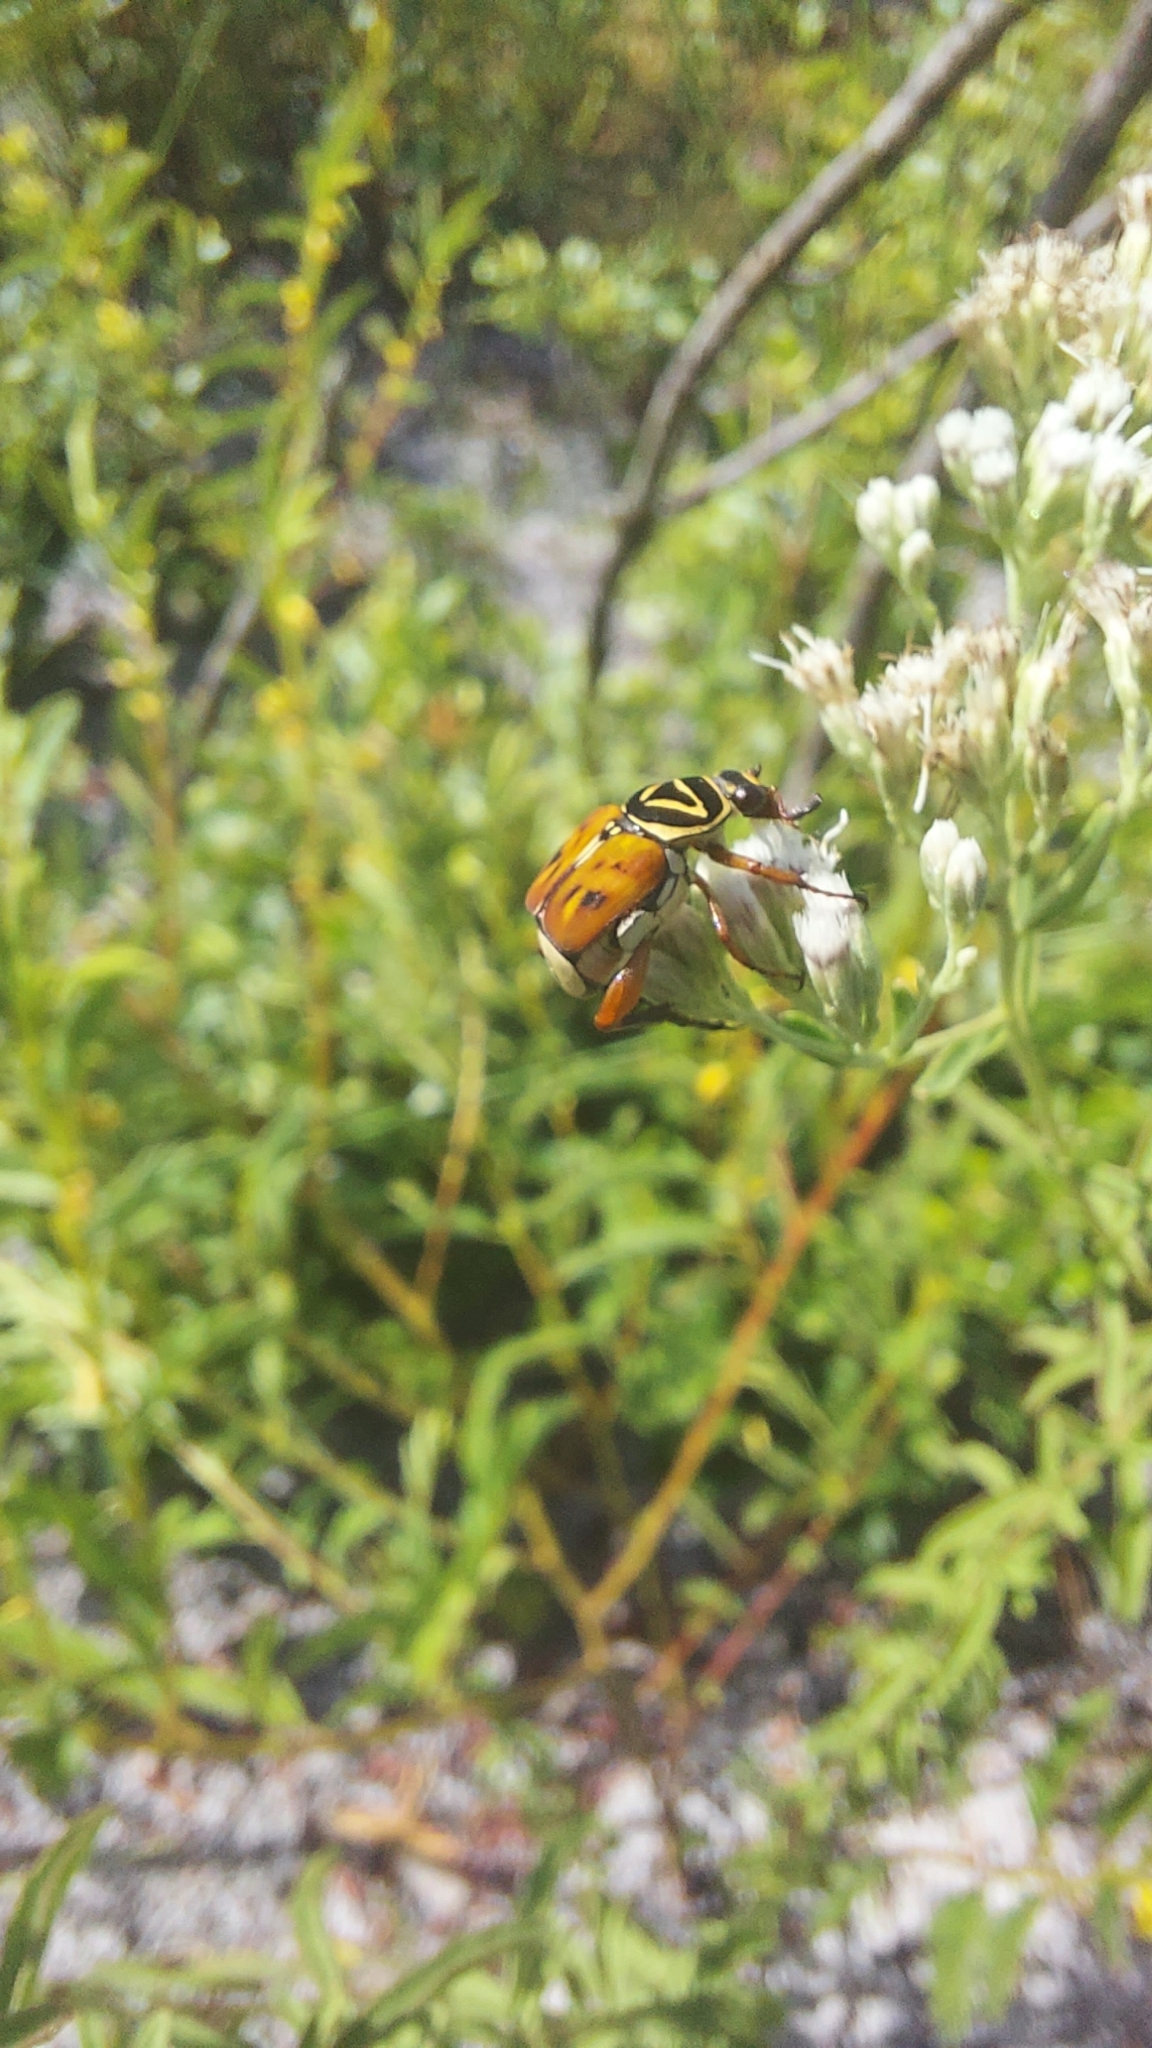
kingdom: Animalia
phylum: Arthropoda
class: Insecta
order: Coleoptera
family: Scarabaeidae
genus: Trigonopeltastes
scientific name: Trigonopeltastes delta
